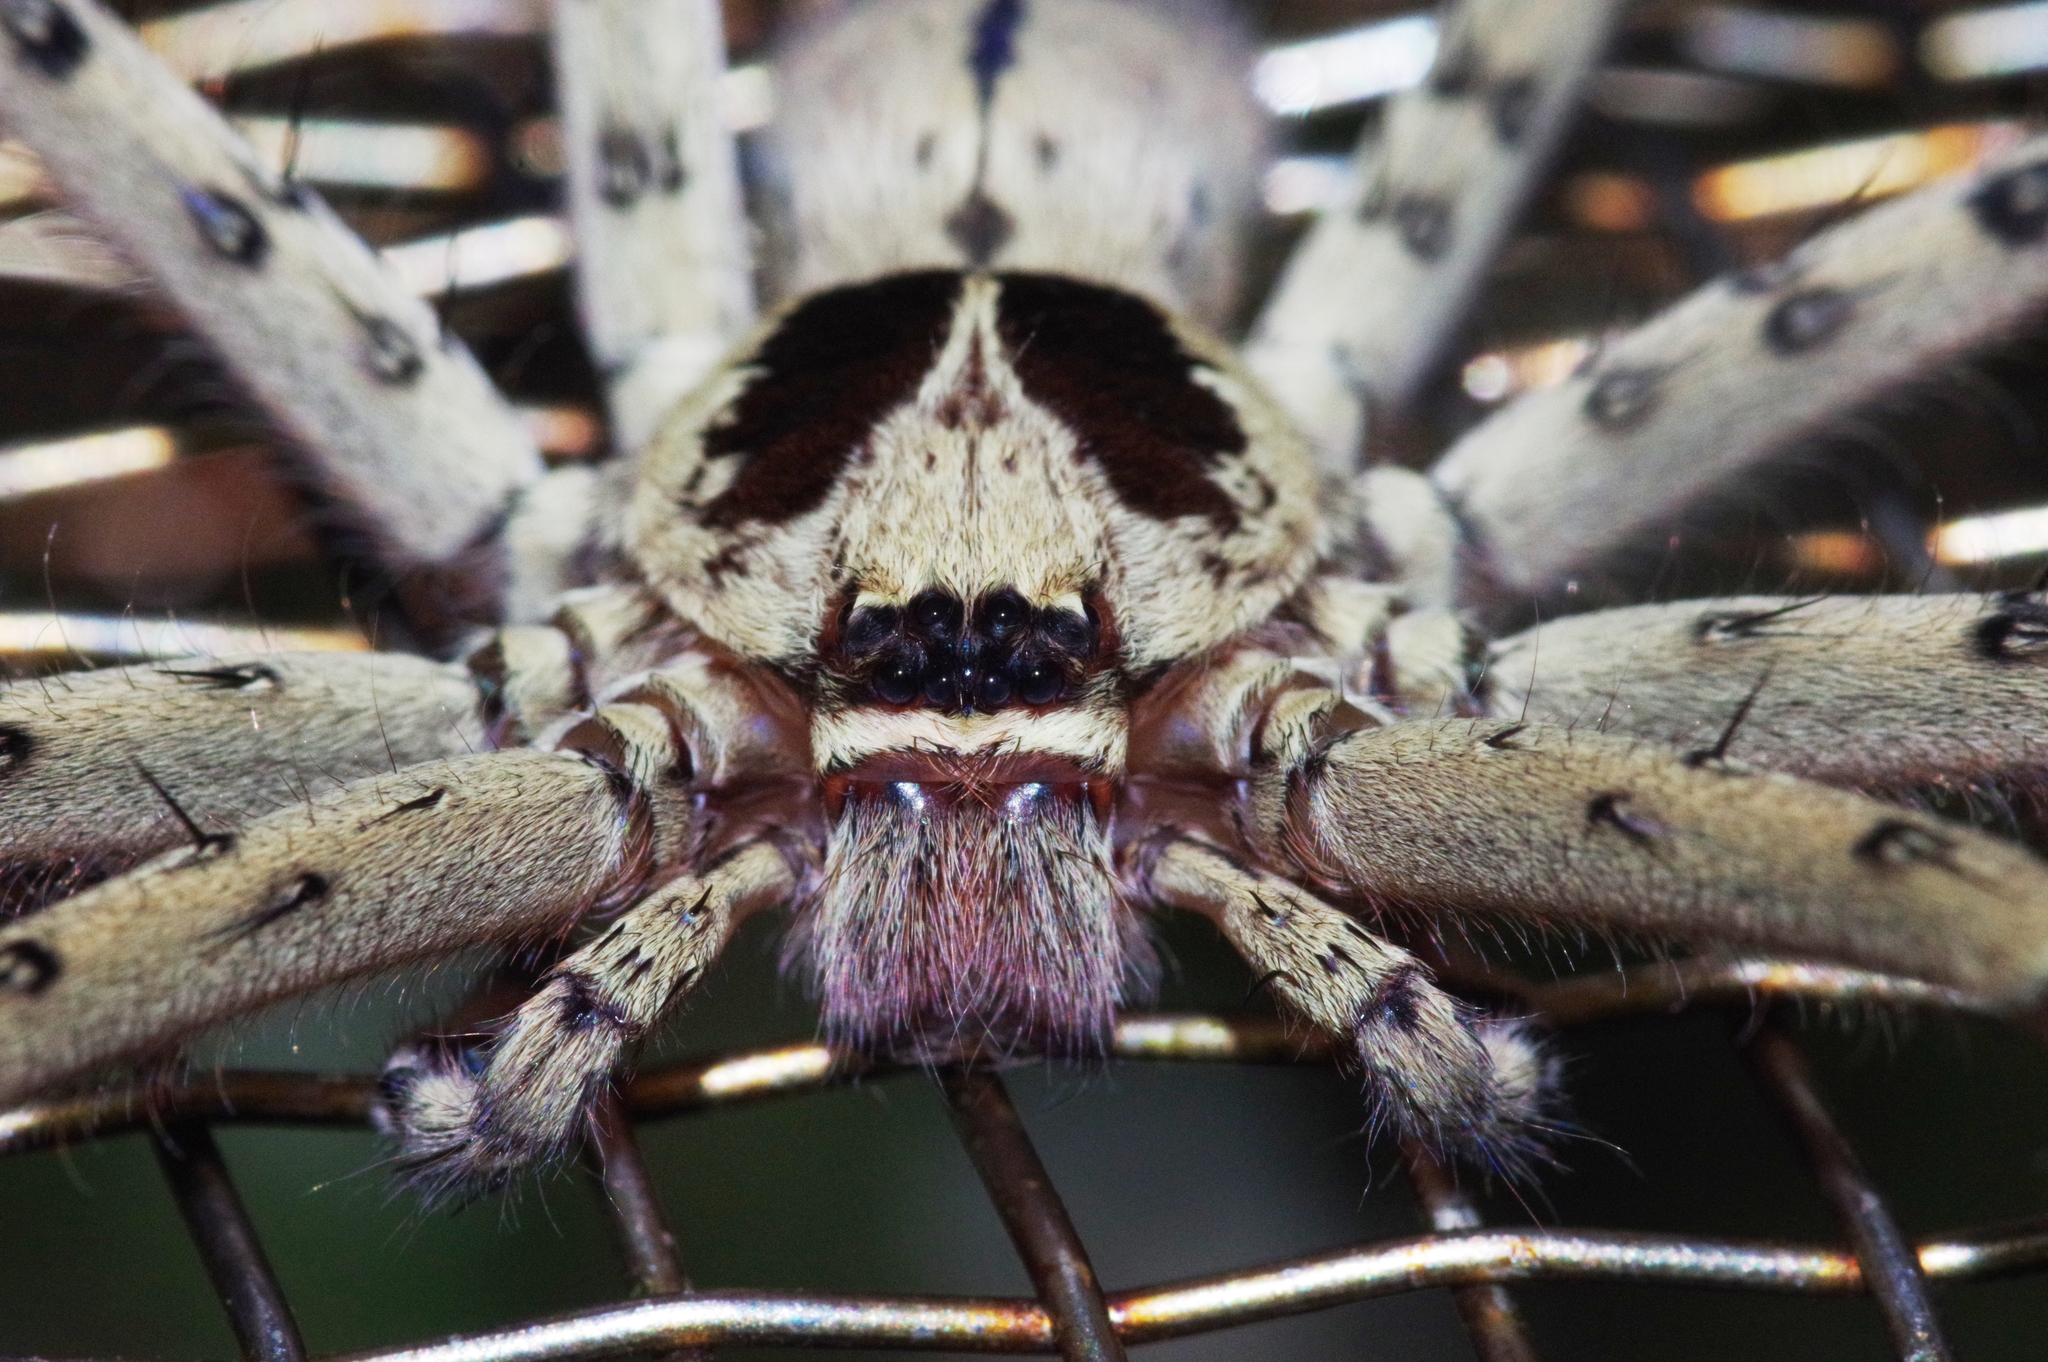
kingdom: Animalia
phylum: Arthropoda
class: Arachnida
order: Araneae
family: Sparassidae
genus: Heteropoda
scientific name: Heteropoda venatoria
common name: Huntsman spider
